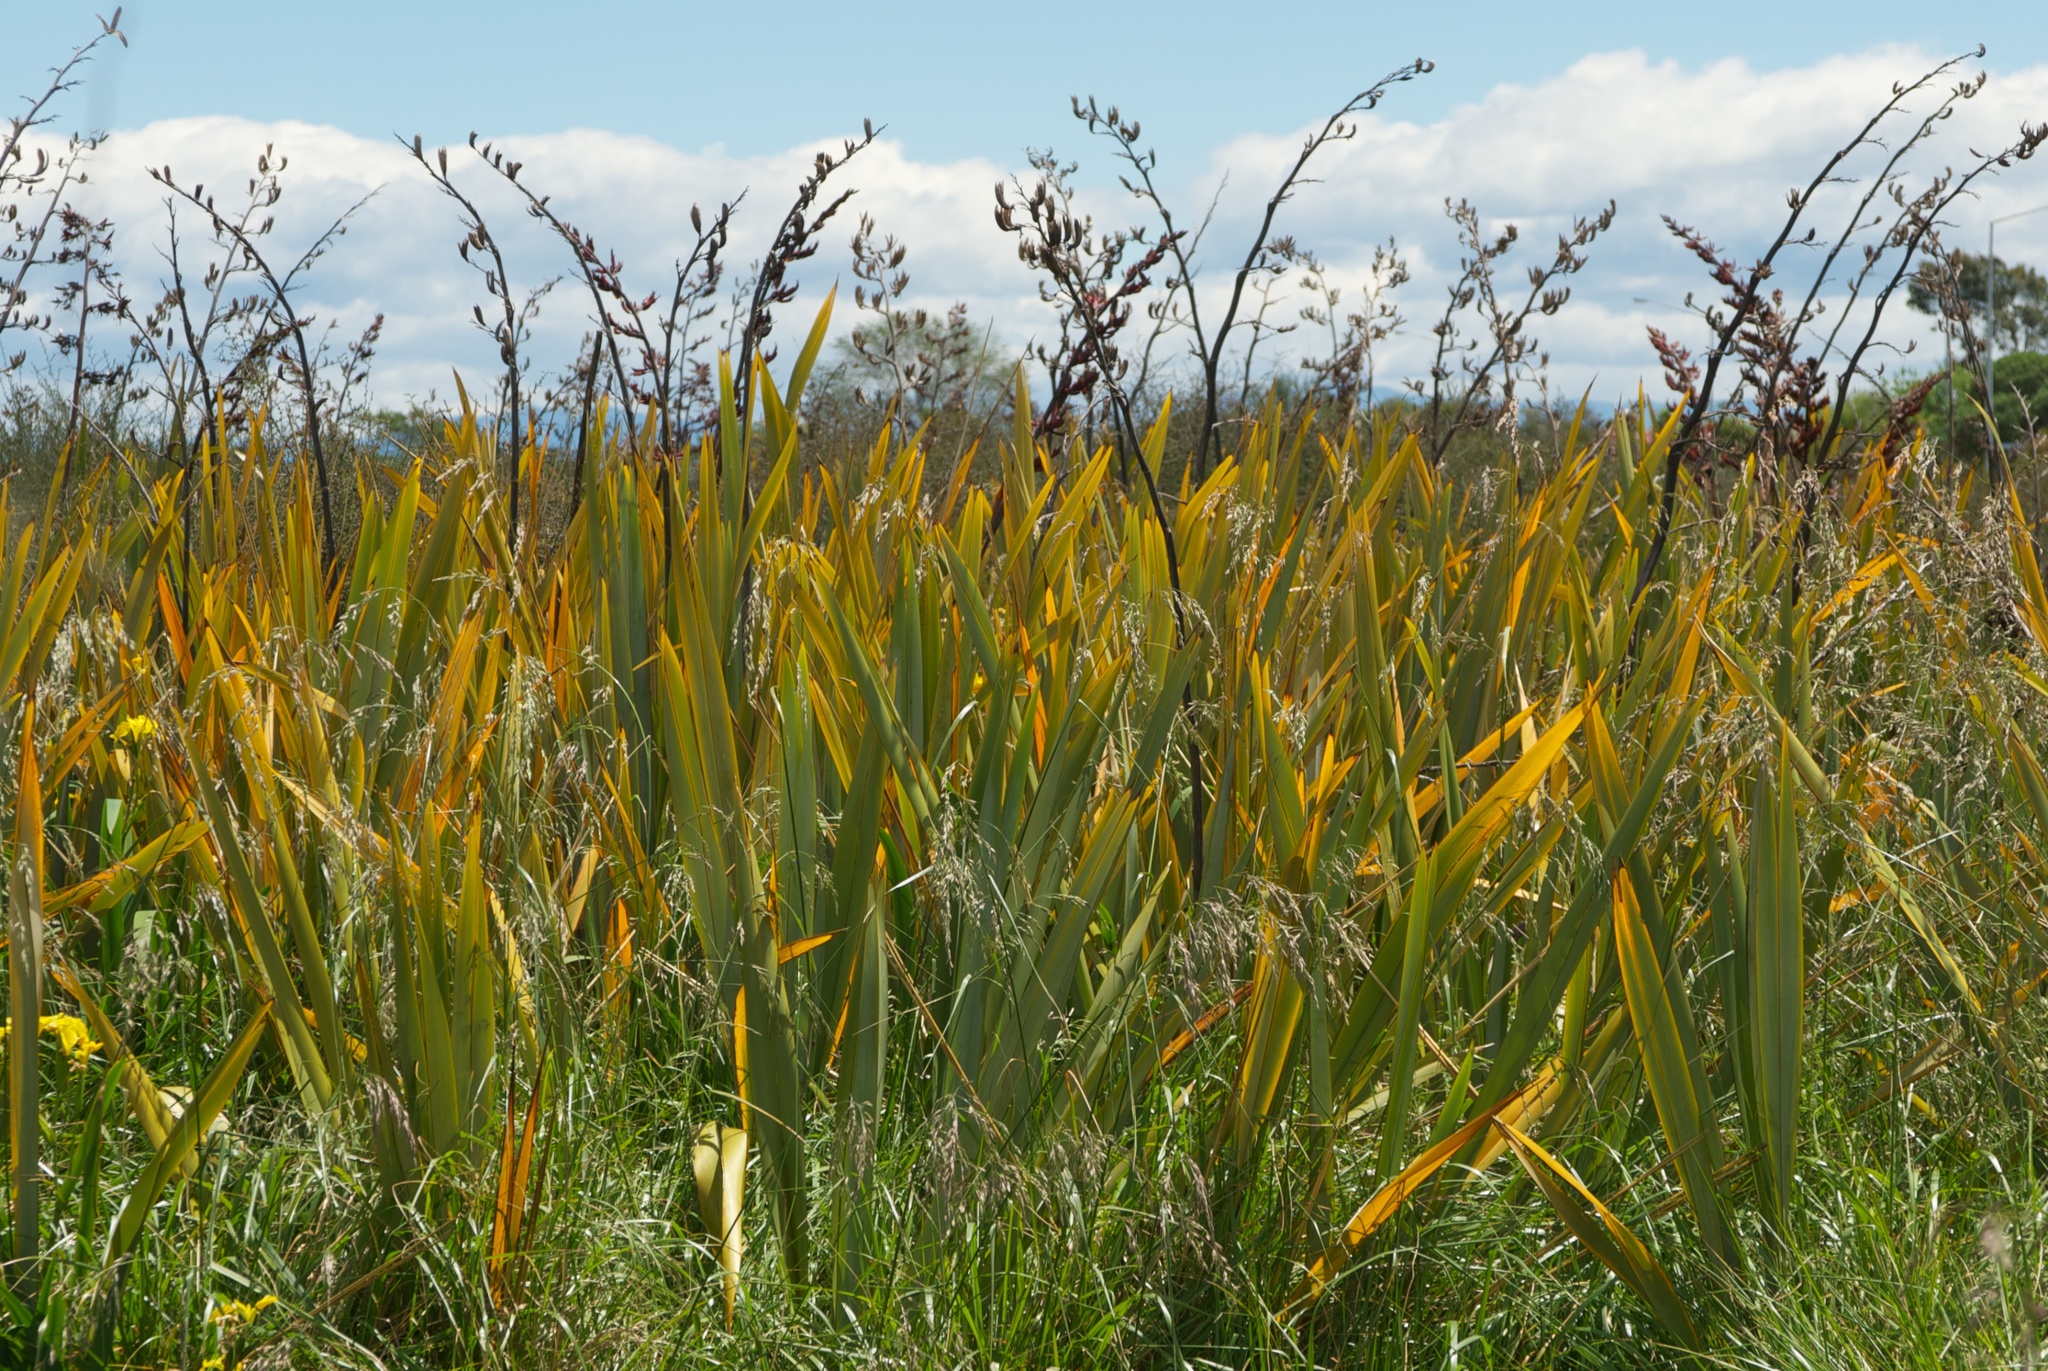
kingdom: Plantae
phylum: Tracheophyta
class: Liliopsida
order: Asparagales
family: Asphodelaceae
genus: Phormium
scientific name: Phormium tenax
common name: New zealand flax
